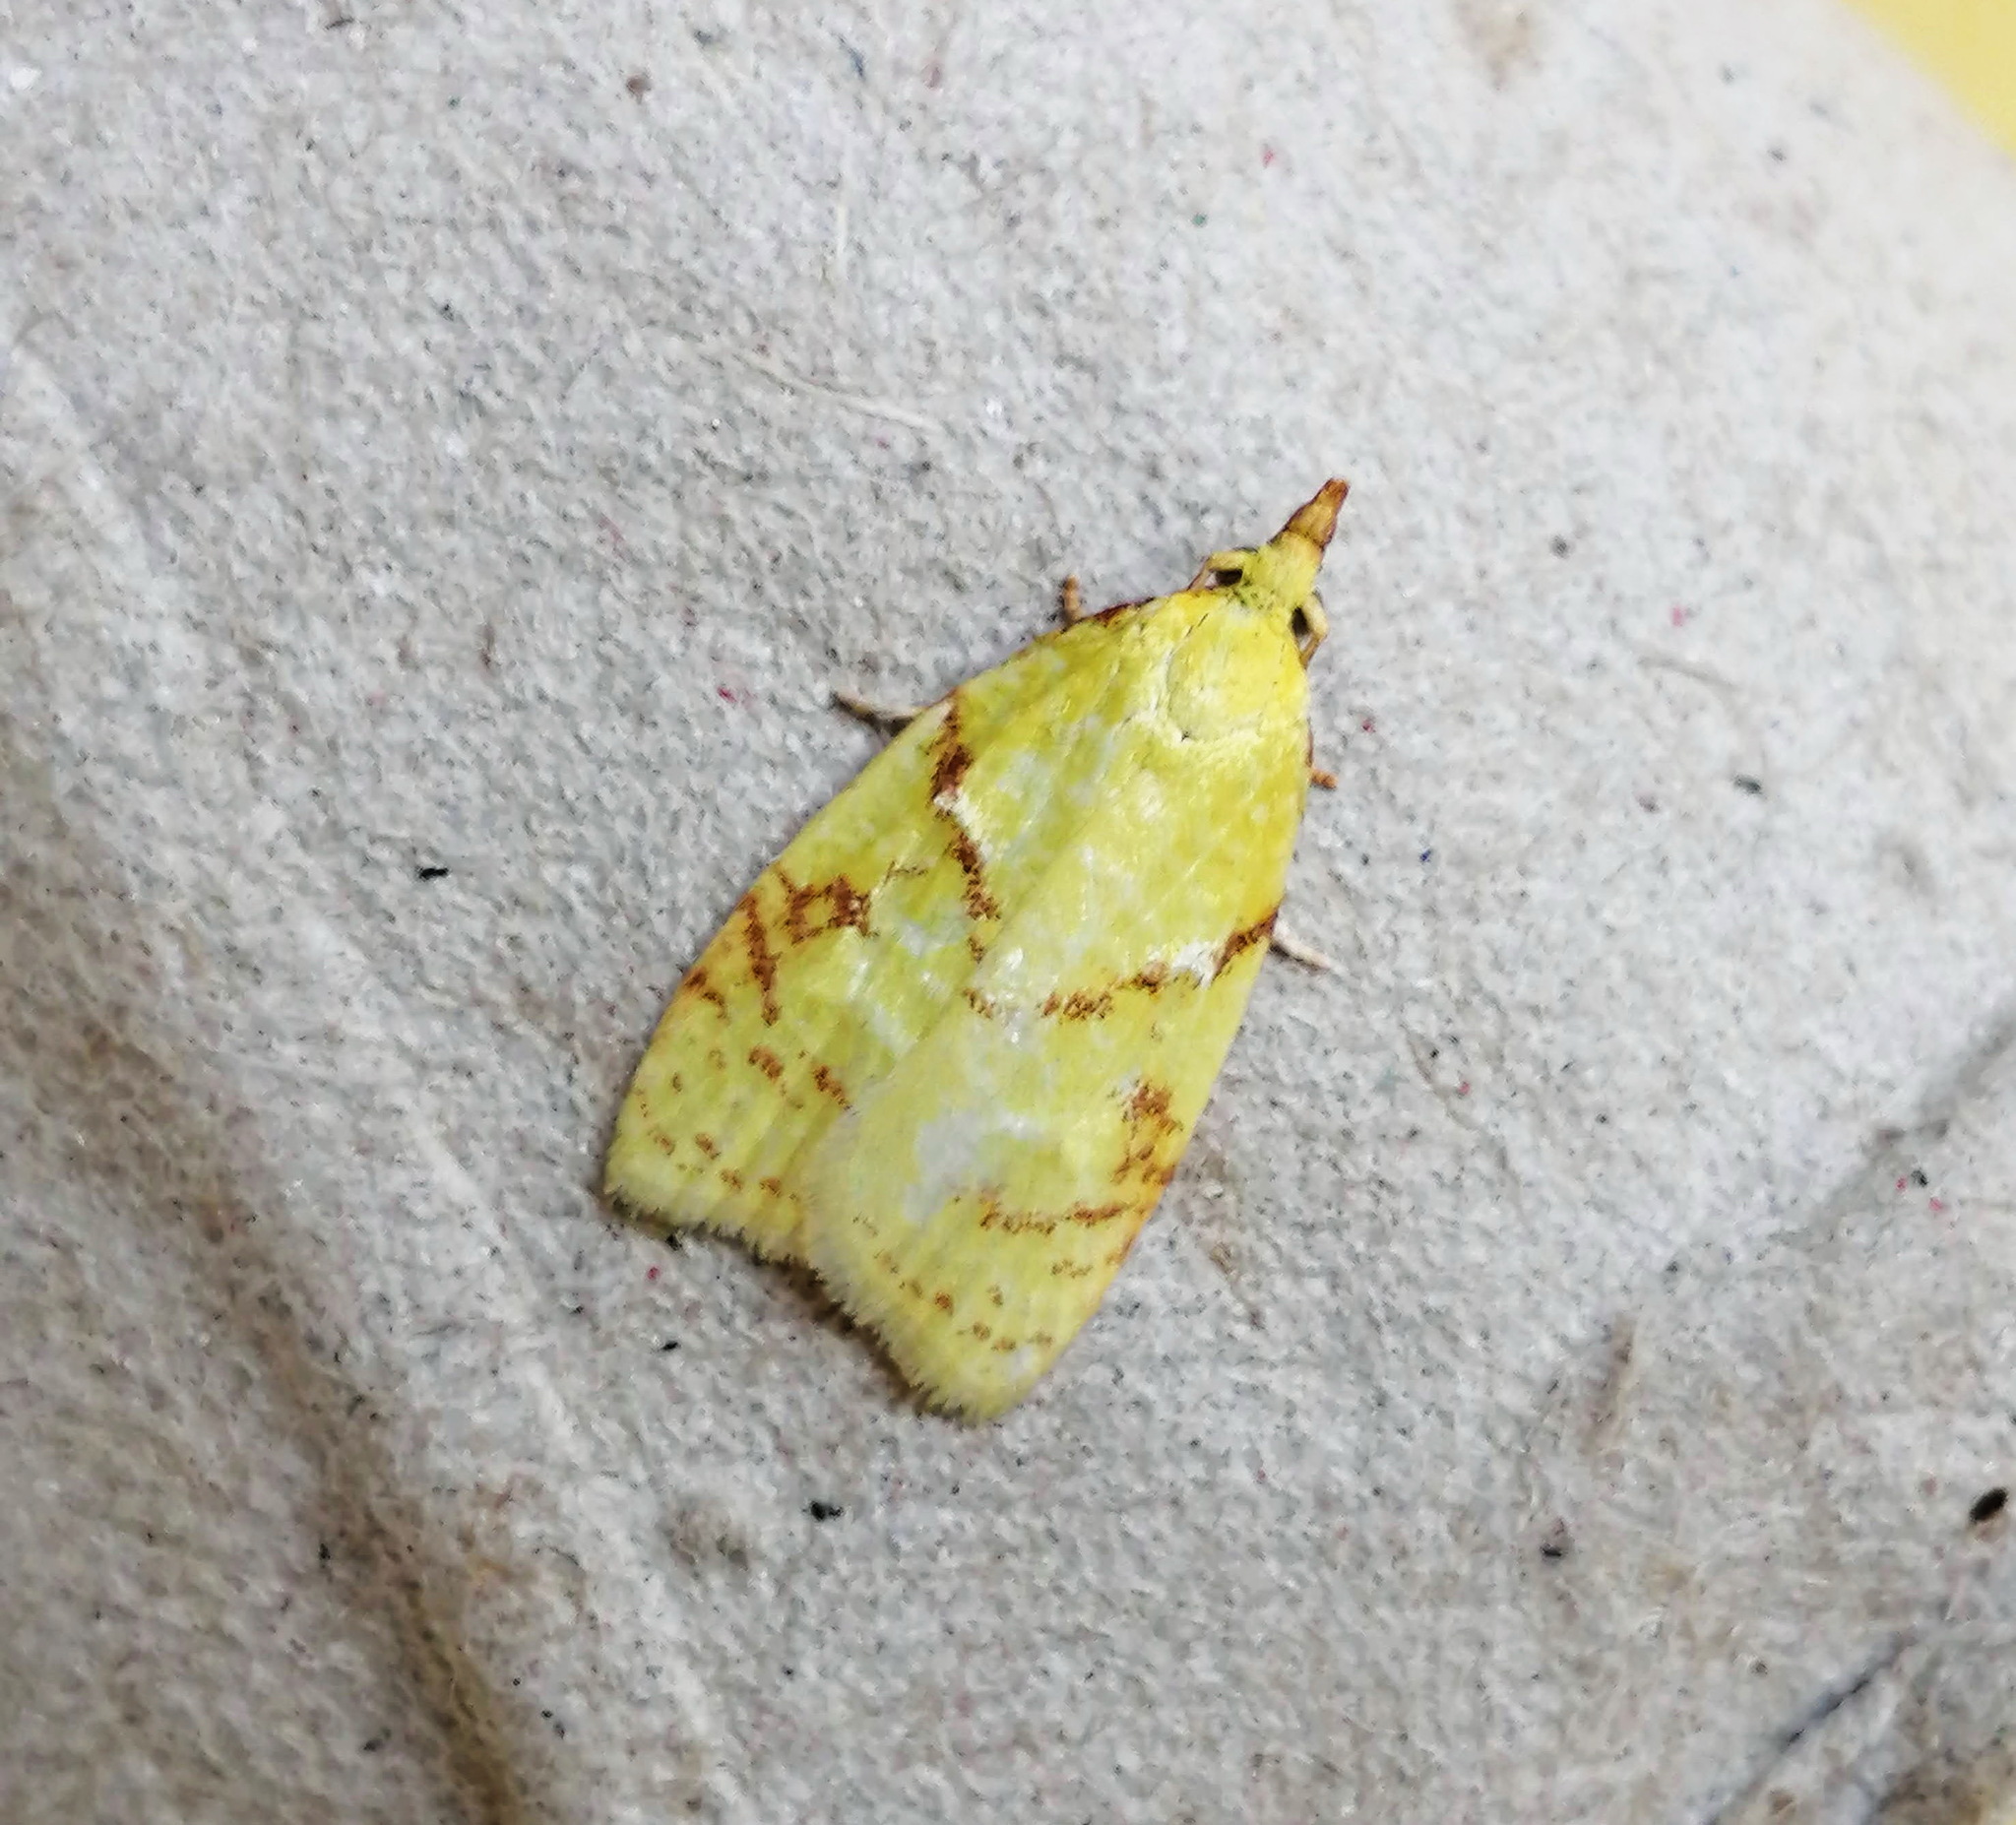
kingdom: Animalia
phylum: Arthropoda
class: Insecta
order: Lepidoptera
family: Tortricidae
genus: Cenopis
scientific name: Cenopis pettitana
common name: Maple-basswood leafroller moth
